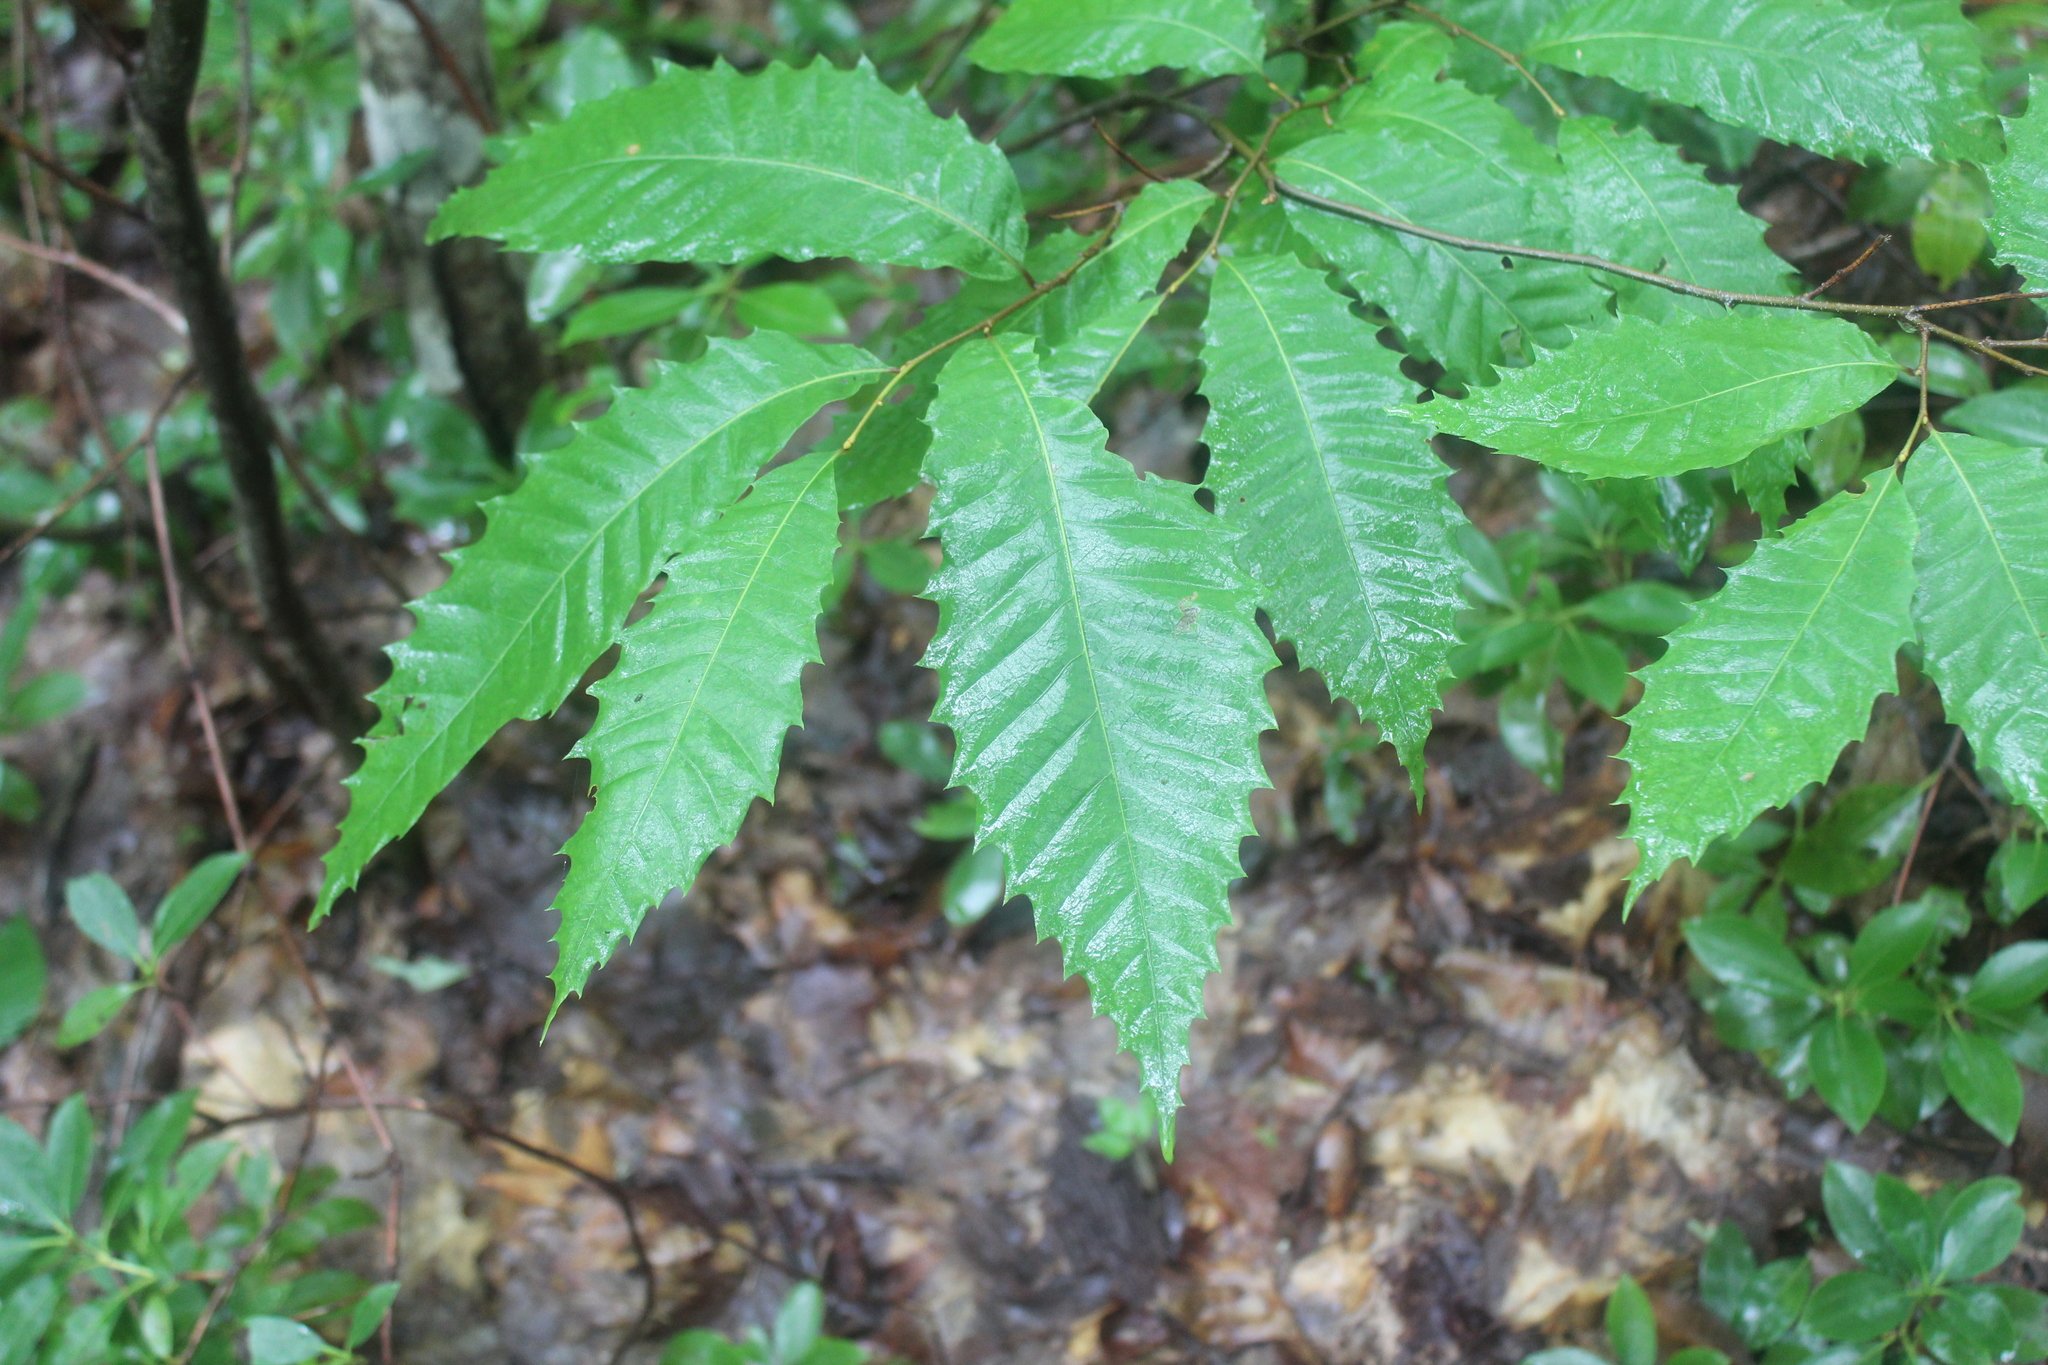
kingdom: Plantae
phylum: Tracheophyta
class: Magnoliopsida
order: Fagales
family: Fagaceae
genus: Castanea
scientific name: Castanea dentata
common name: American chestnut
